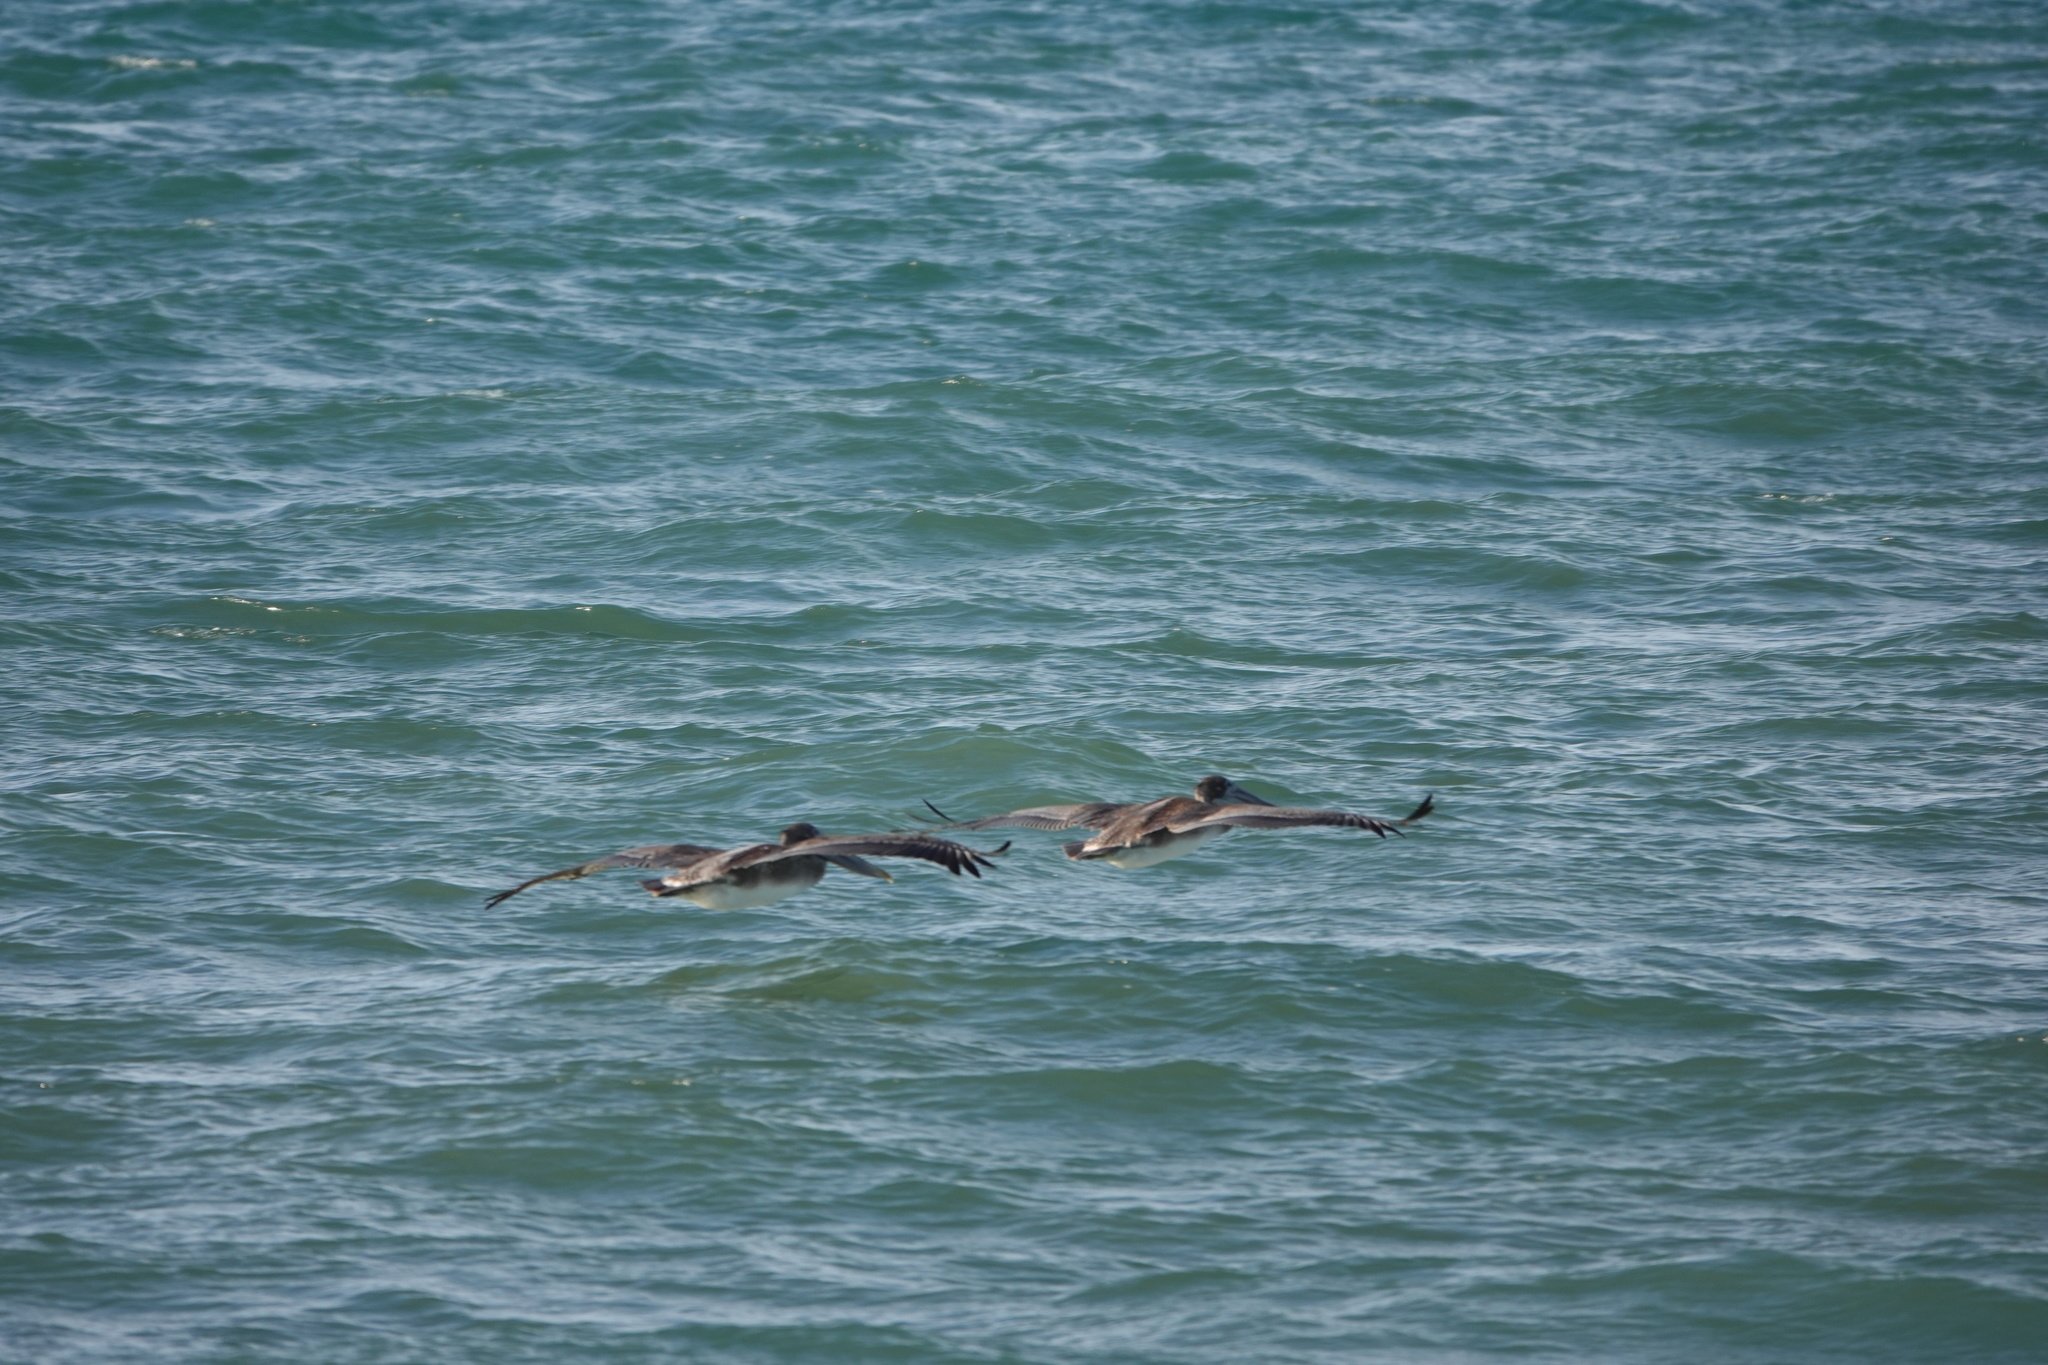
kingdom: Animalia
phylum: Chordata
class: Aves
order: Pelecaniformes
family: Pelecanidae
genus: Pelecanus
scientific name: Pelecanus occidentalis
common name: Brown pelican
